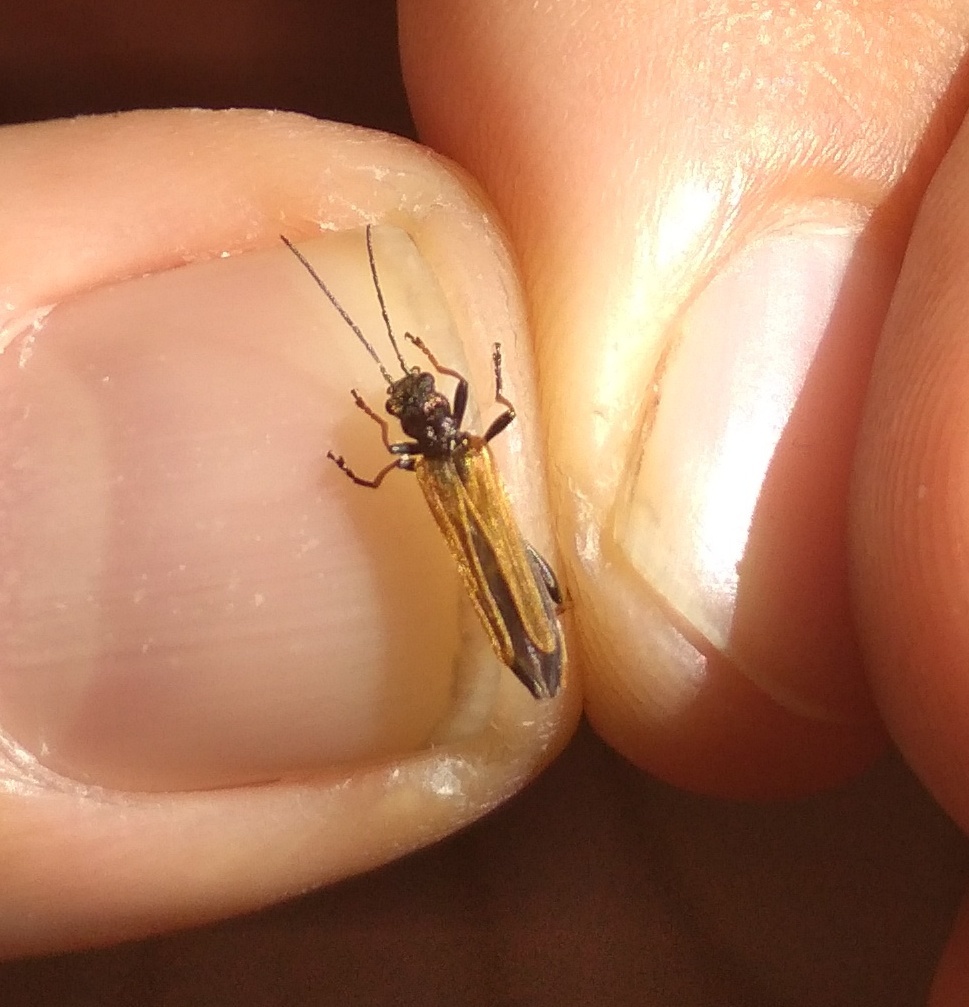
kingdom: Animalia
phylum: Arthropoda
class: Insecta
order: Coleoptera
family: Oedemeridae
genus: Oedemera
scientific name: Oedemera simplex
